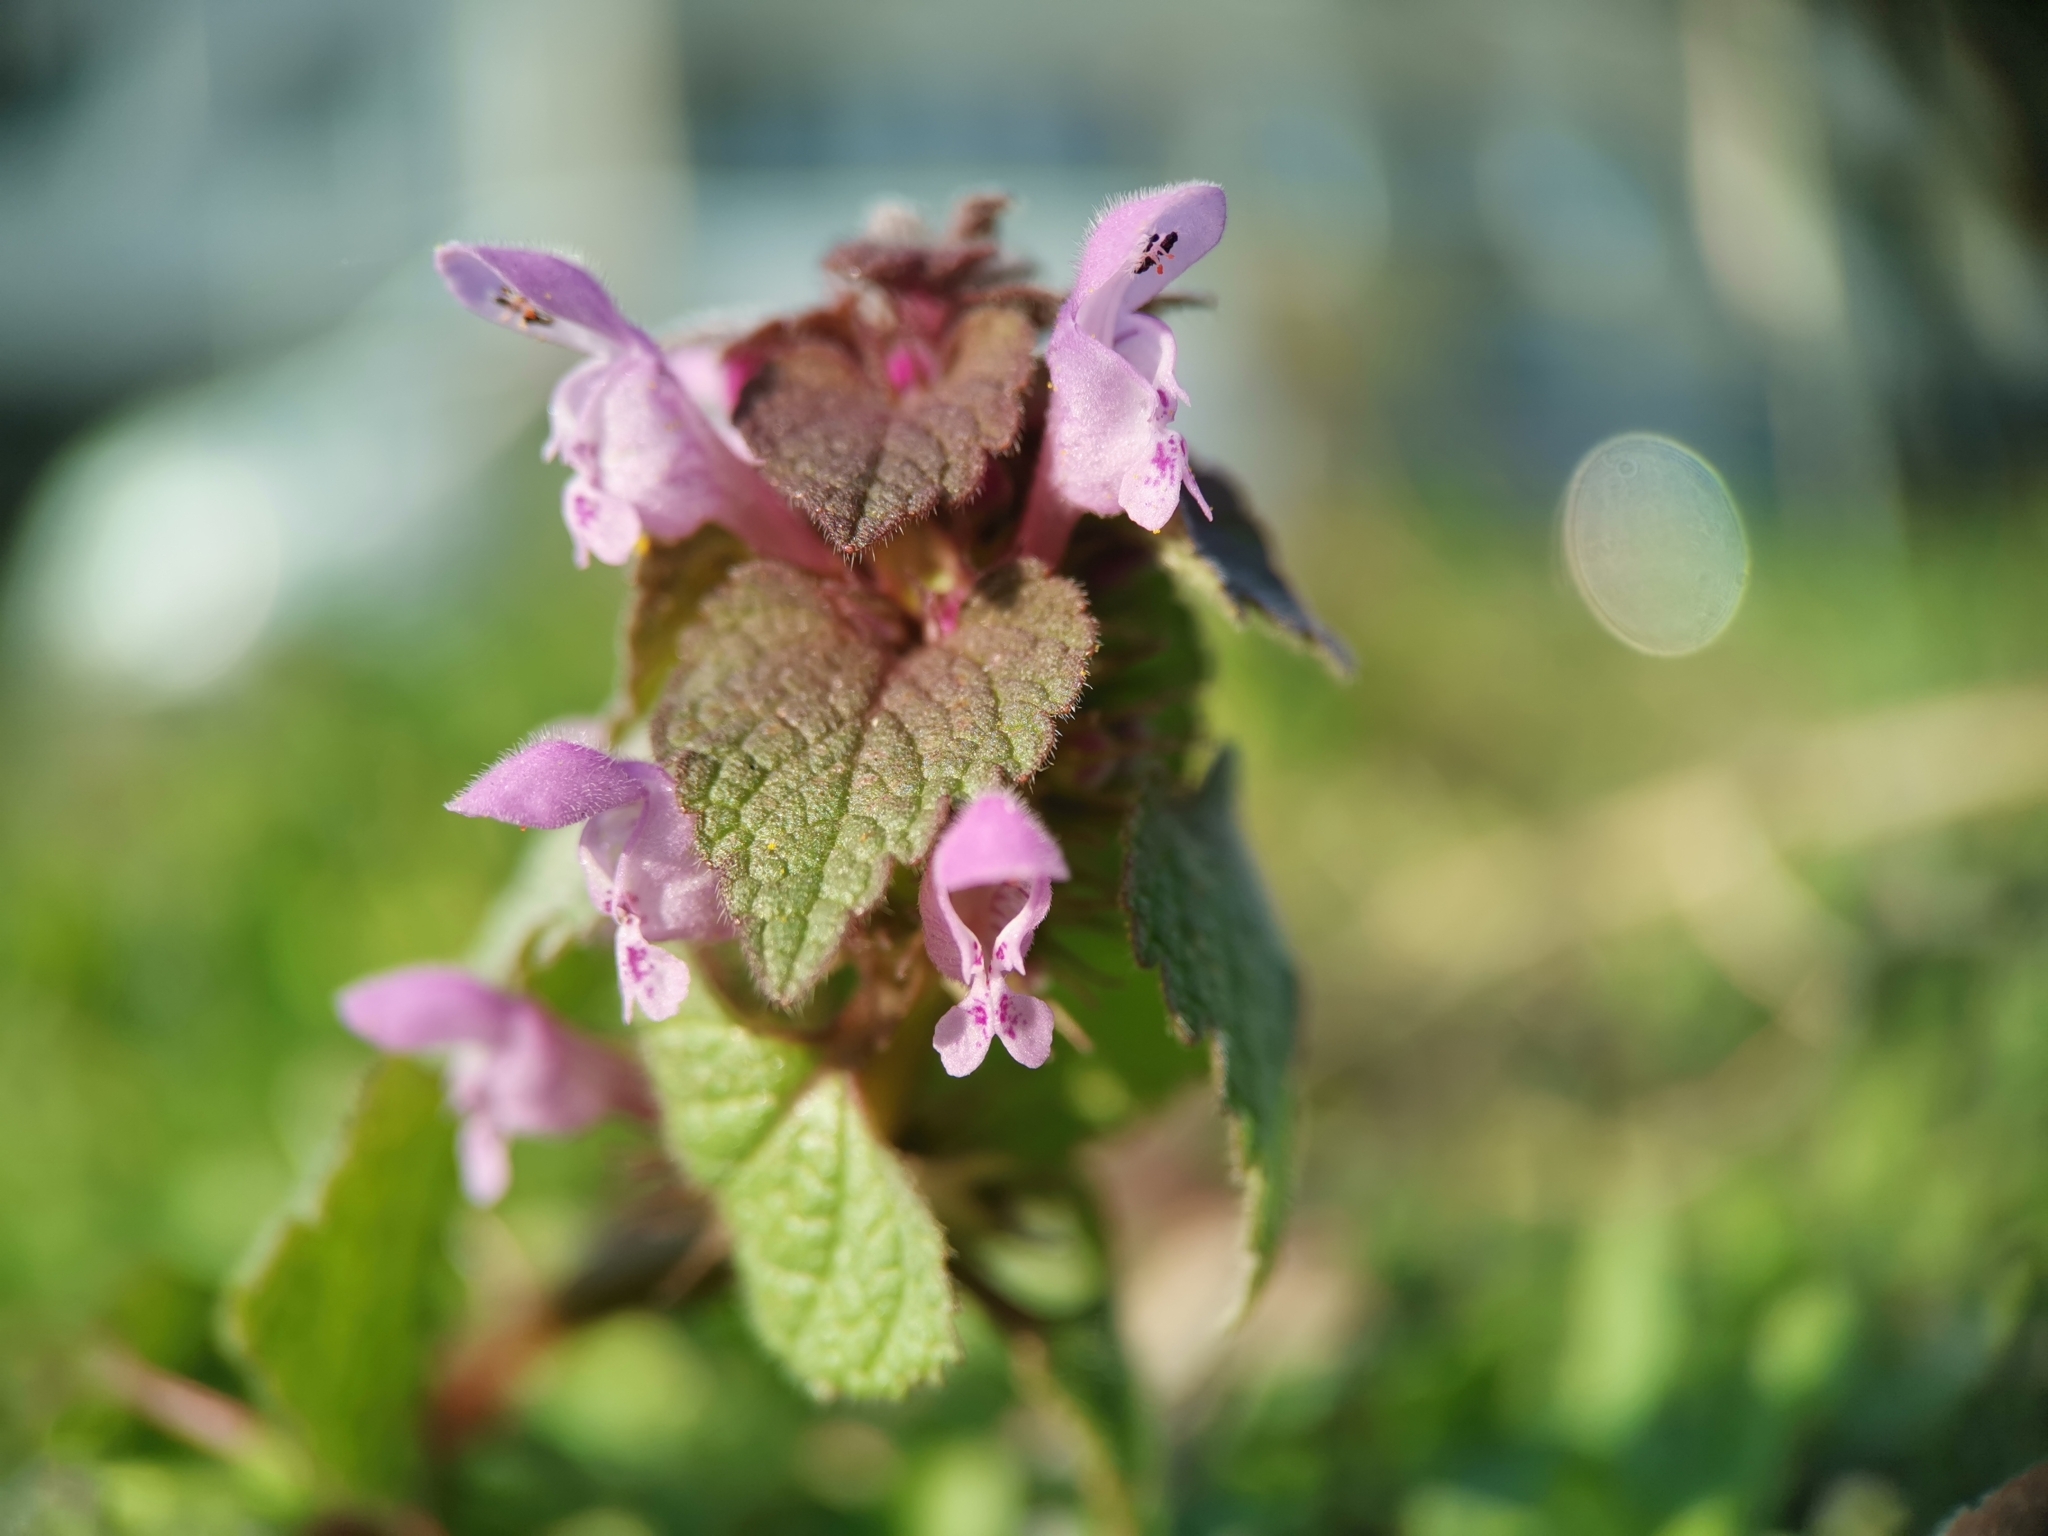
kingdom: Plantae
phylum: Tracheophyta
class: Magnoliopsida
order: Lamiales
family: Lamiaceae
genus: Lamium
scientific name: Lamium purpureum
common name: Red dead-nettle
